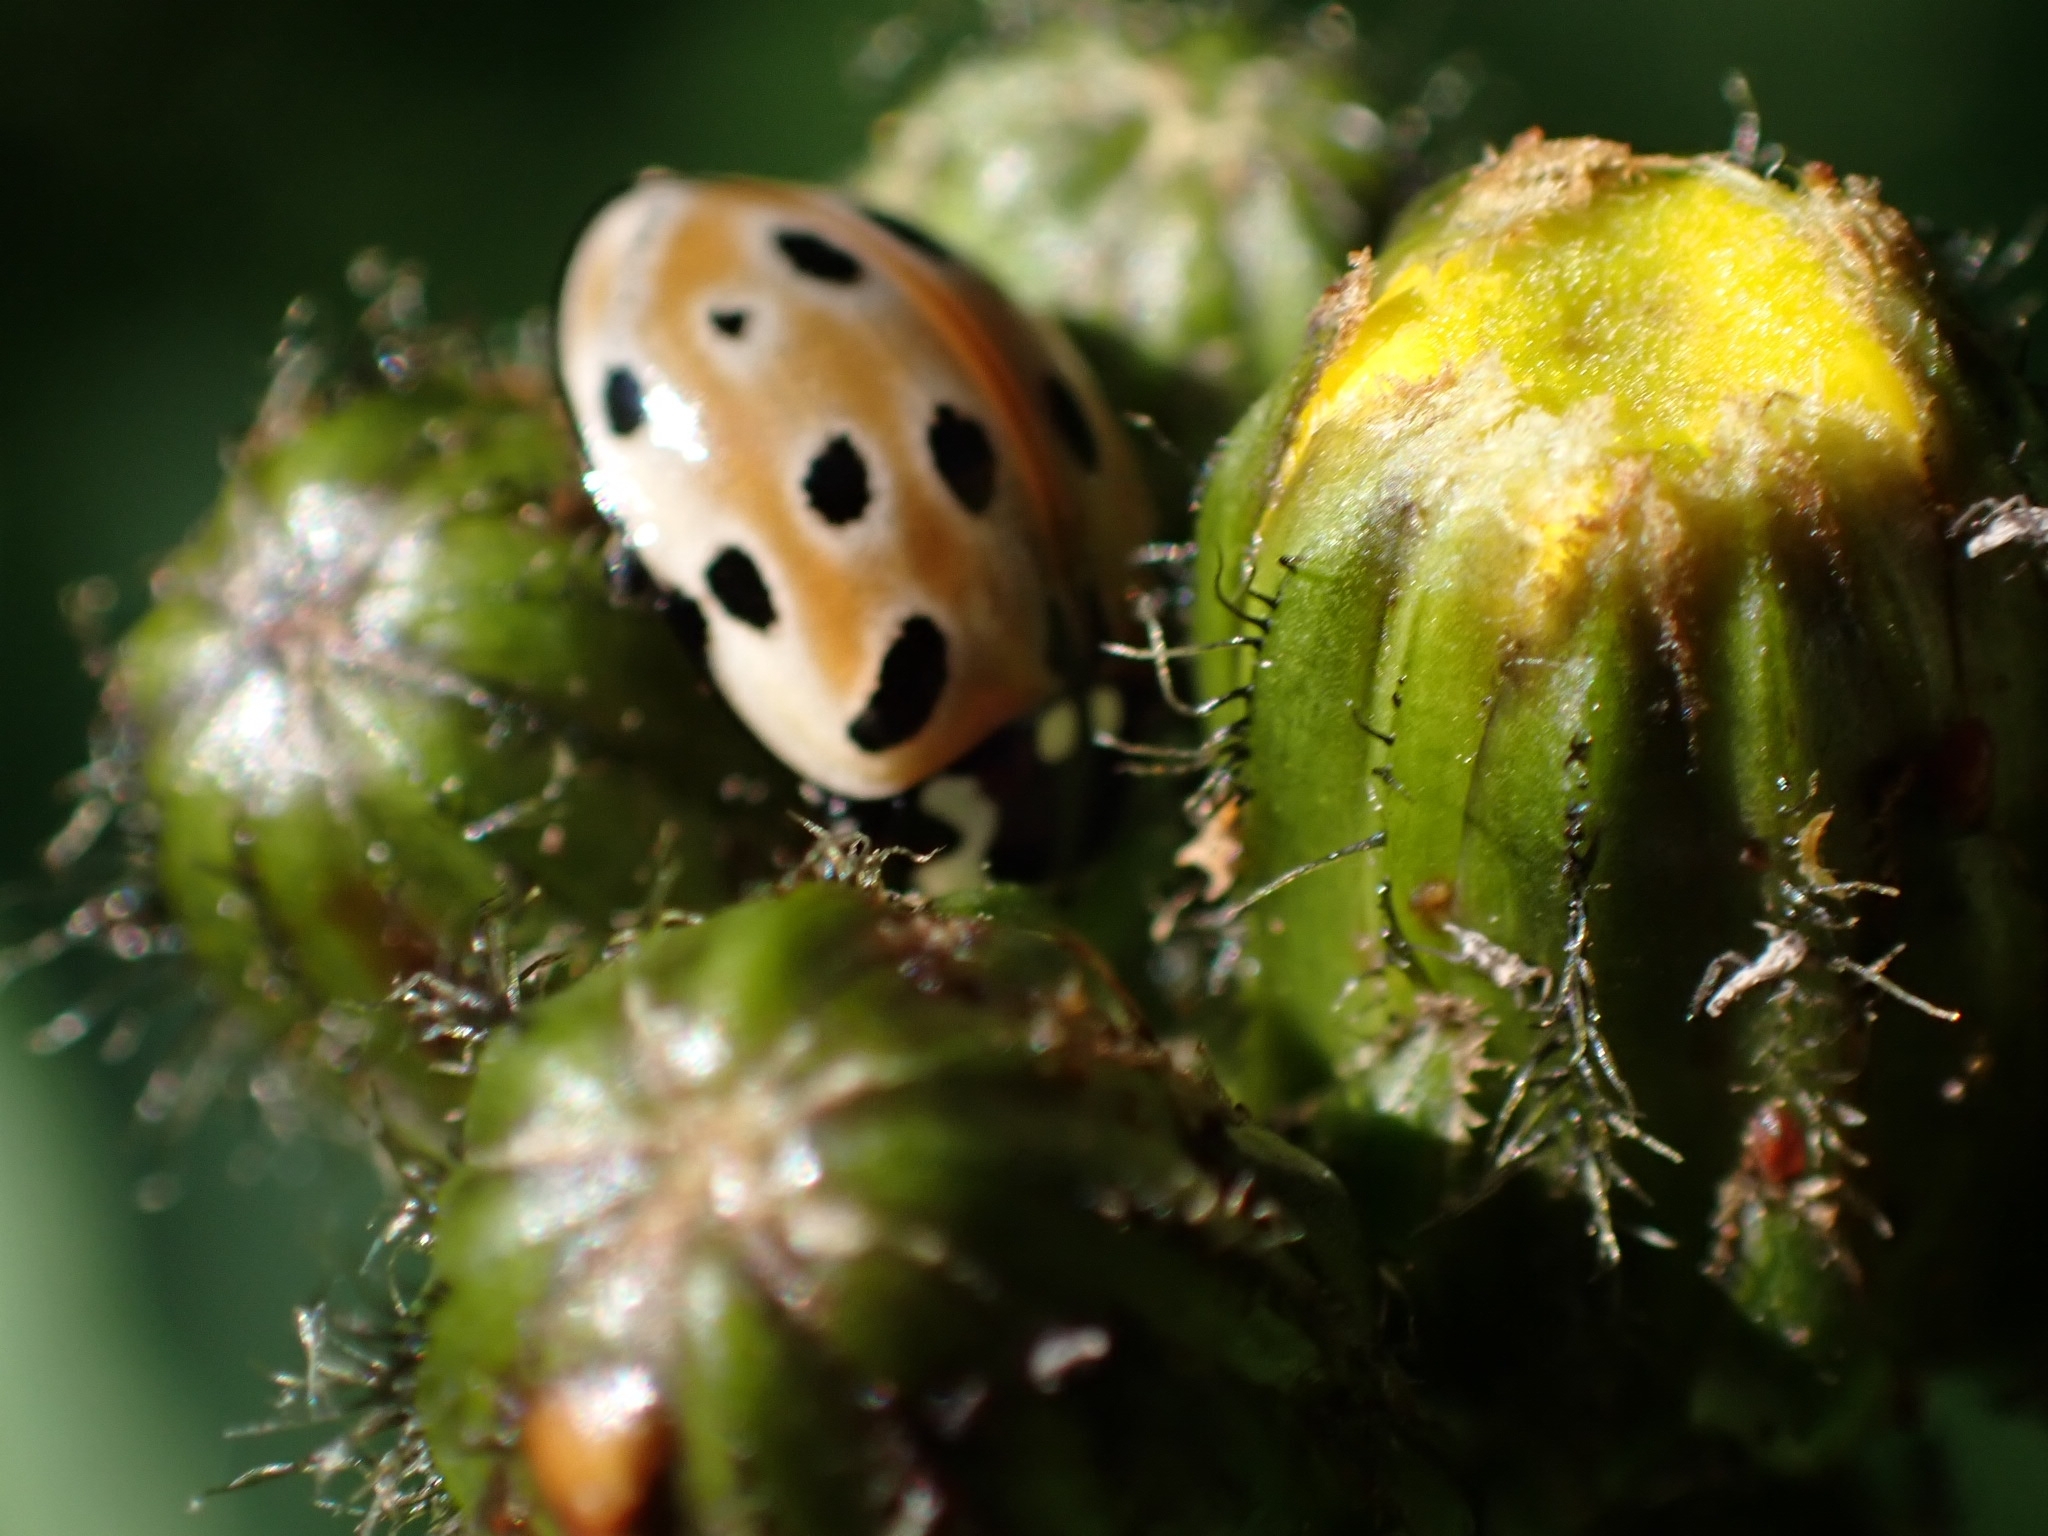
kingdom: Animalia
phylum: Arthropoda
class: Insecta
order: Coleoptera
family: Coccinellidae
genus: Anatis
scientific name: Anatis ocellata
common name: Eyed ladybird
